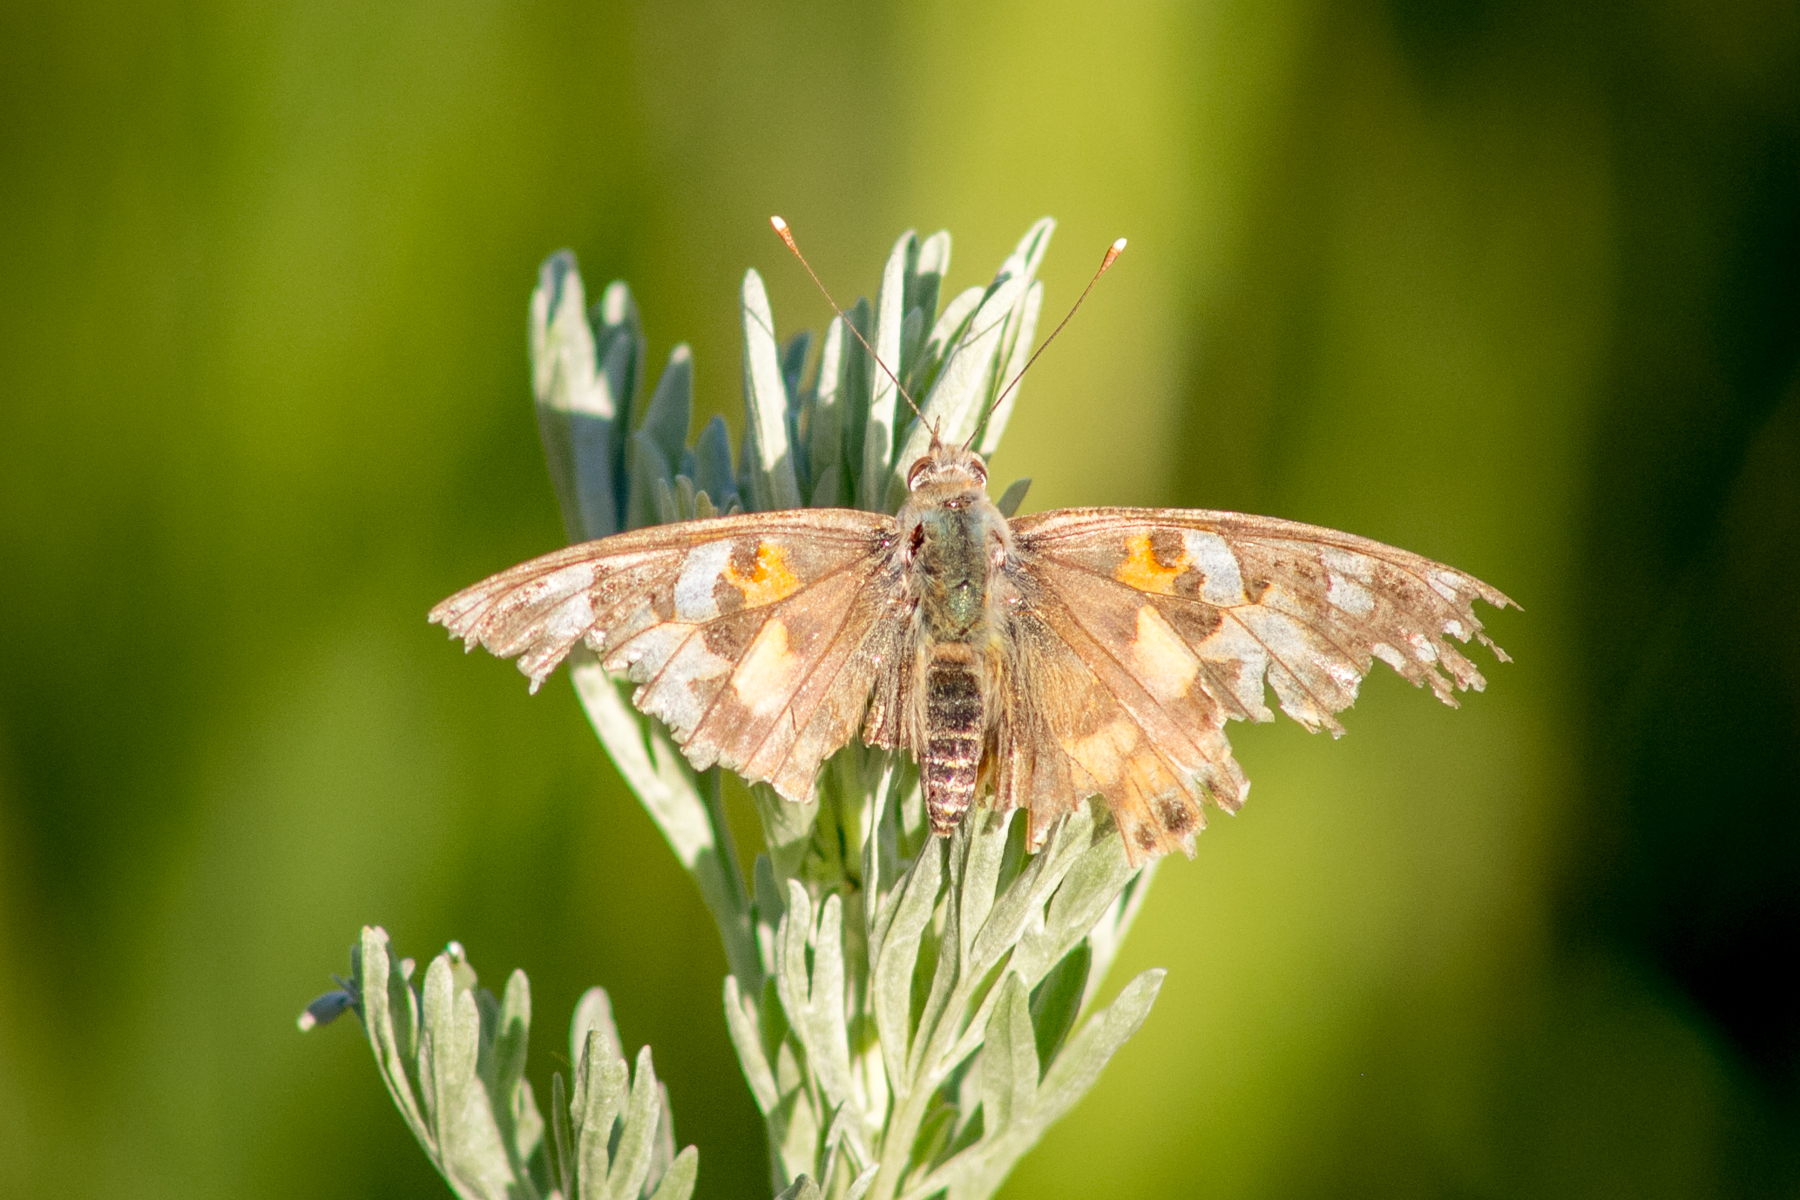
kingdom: Animalia
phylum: Arthropoda
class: Insecta
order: Lepidoptera
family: Nymphalidae
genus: Vanessa
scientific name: Vanessa cardui
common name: Painted lady
